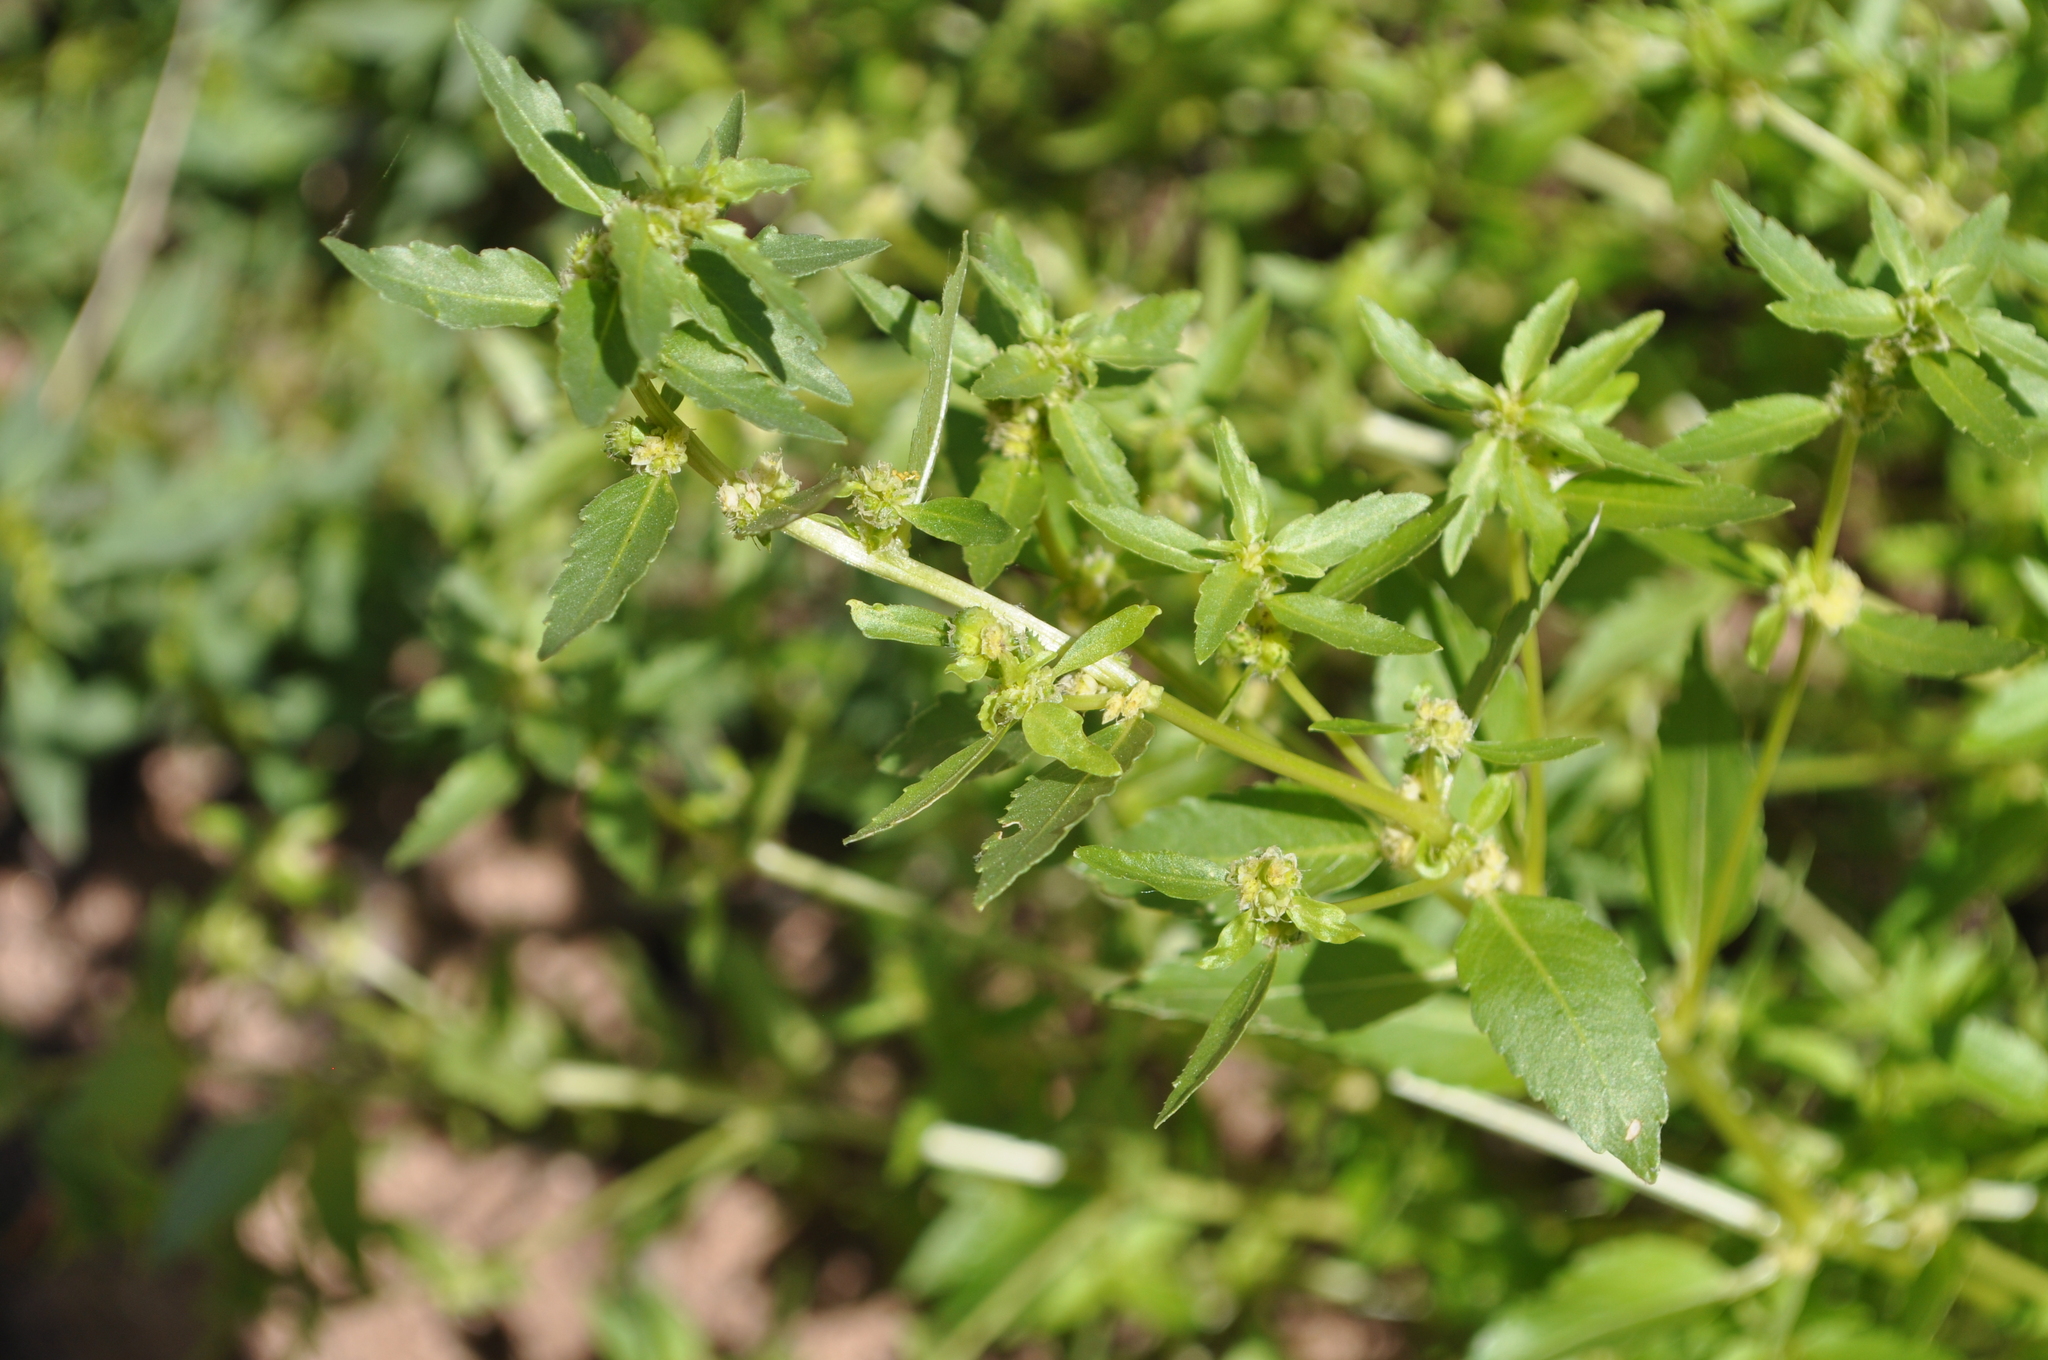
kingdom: Plantae
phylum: Tracheophyta
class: Magnoliopsida
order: Malpighiales
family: Euphorbiaceae
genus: Mercurialis
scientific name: Mercurialis annua
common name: Annual mercury
